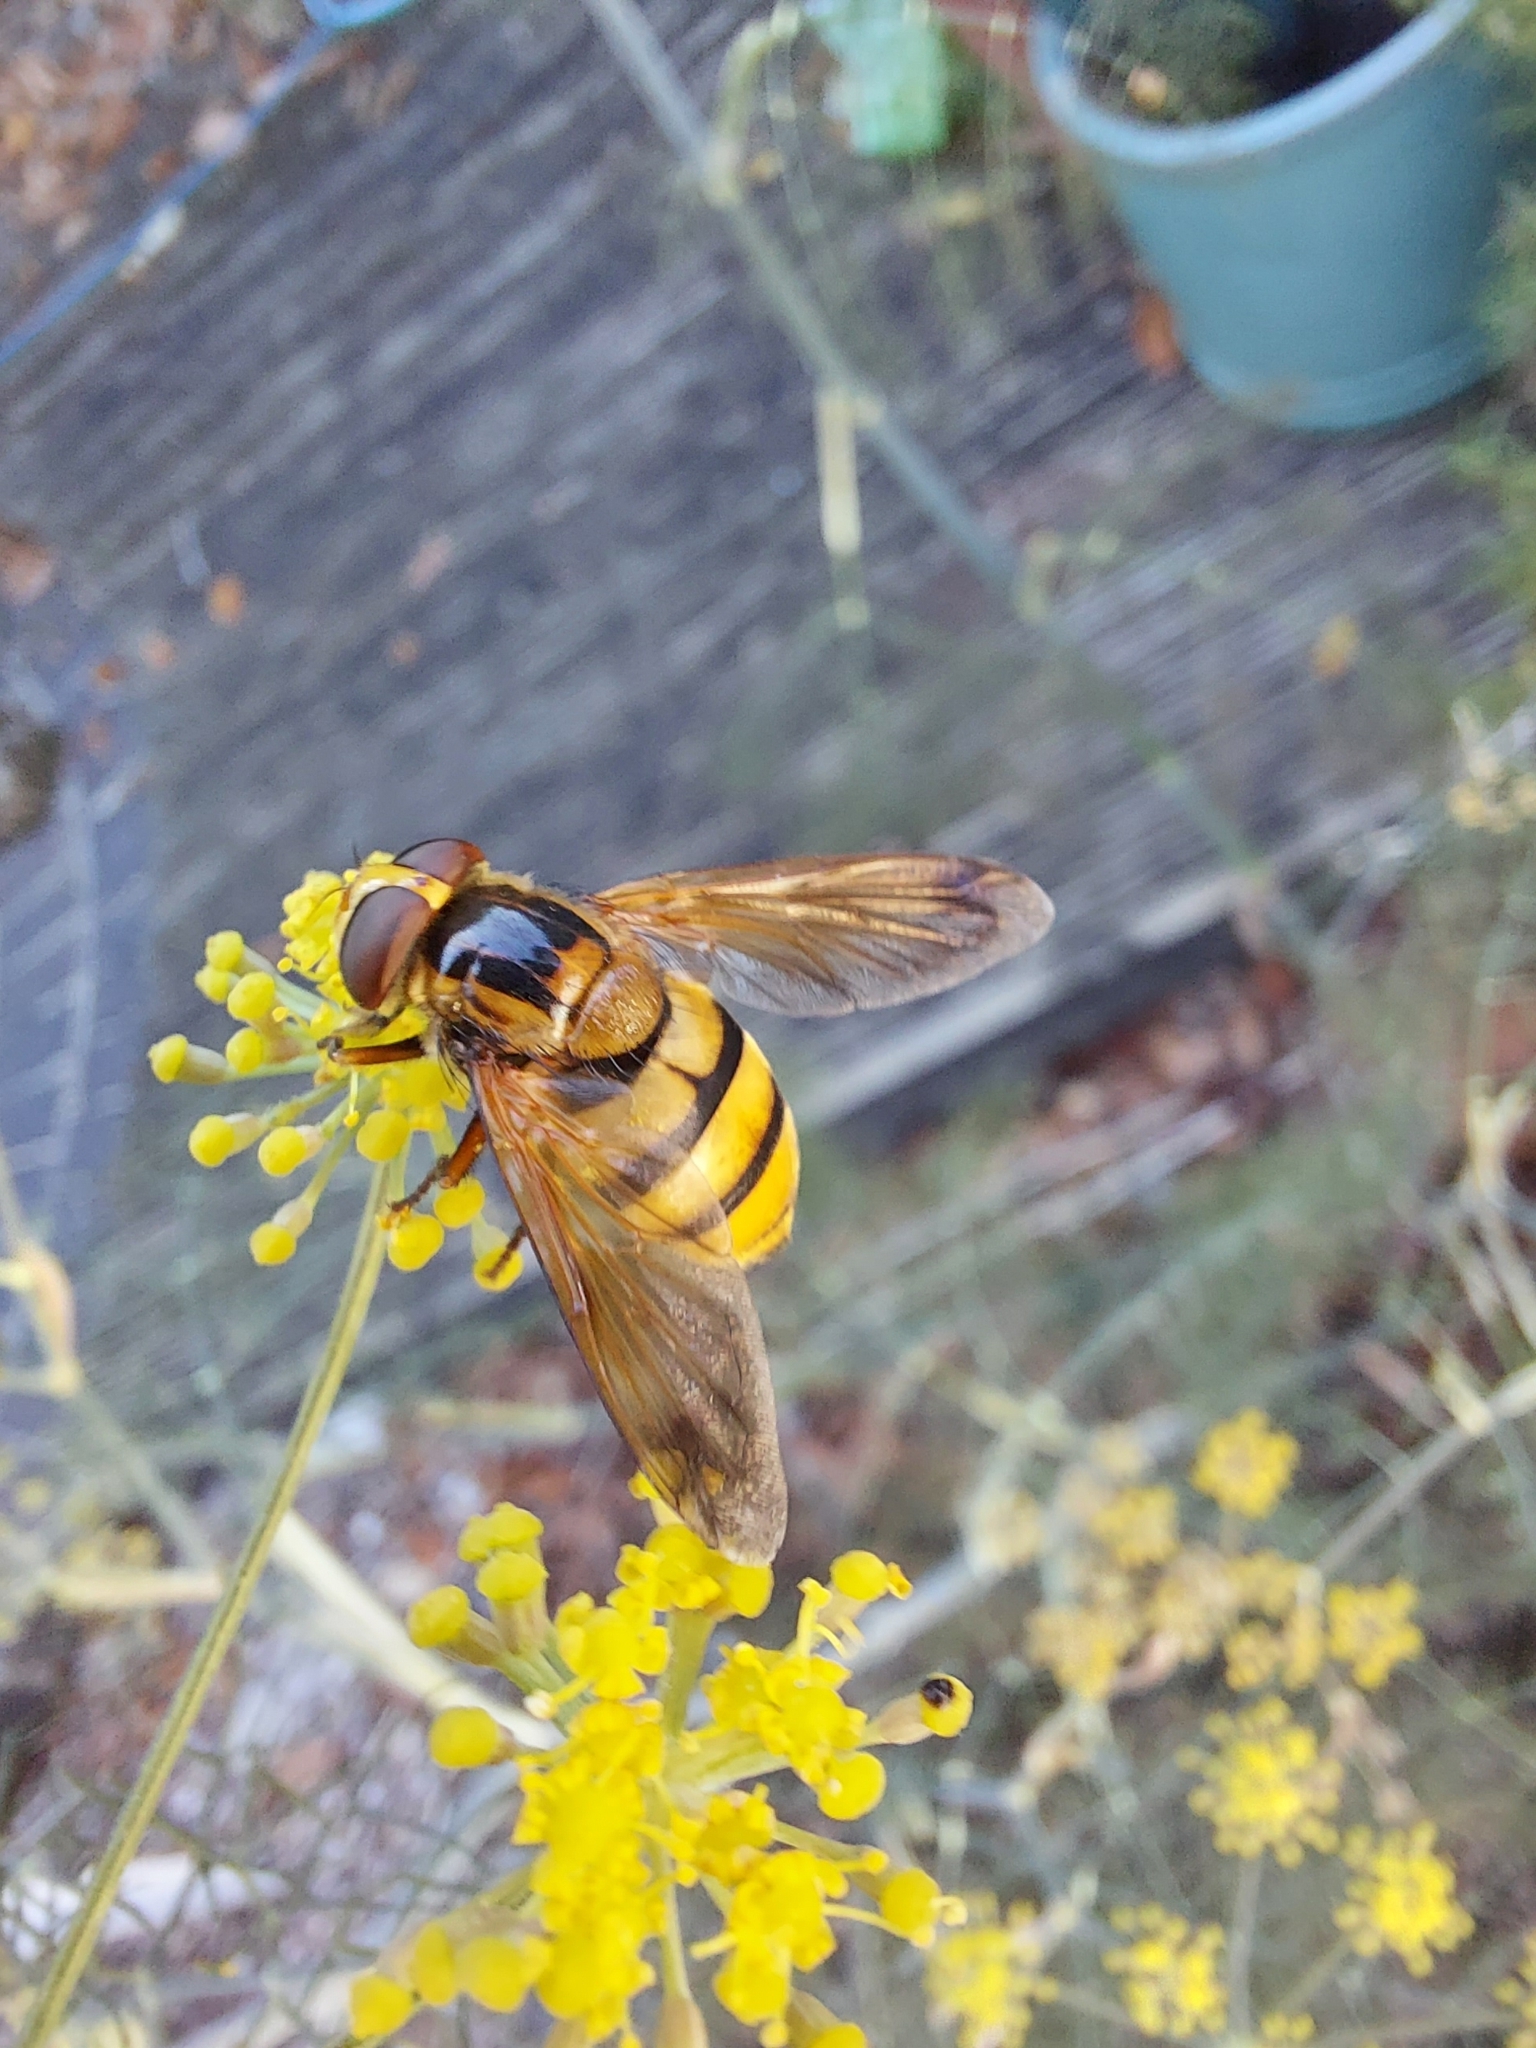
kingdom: Animalia
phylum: Arthropoda
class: Insecta
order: Diptera
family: Syrphidae
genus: Volucella
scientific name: Volucella inanis
